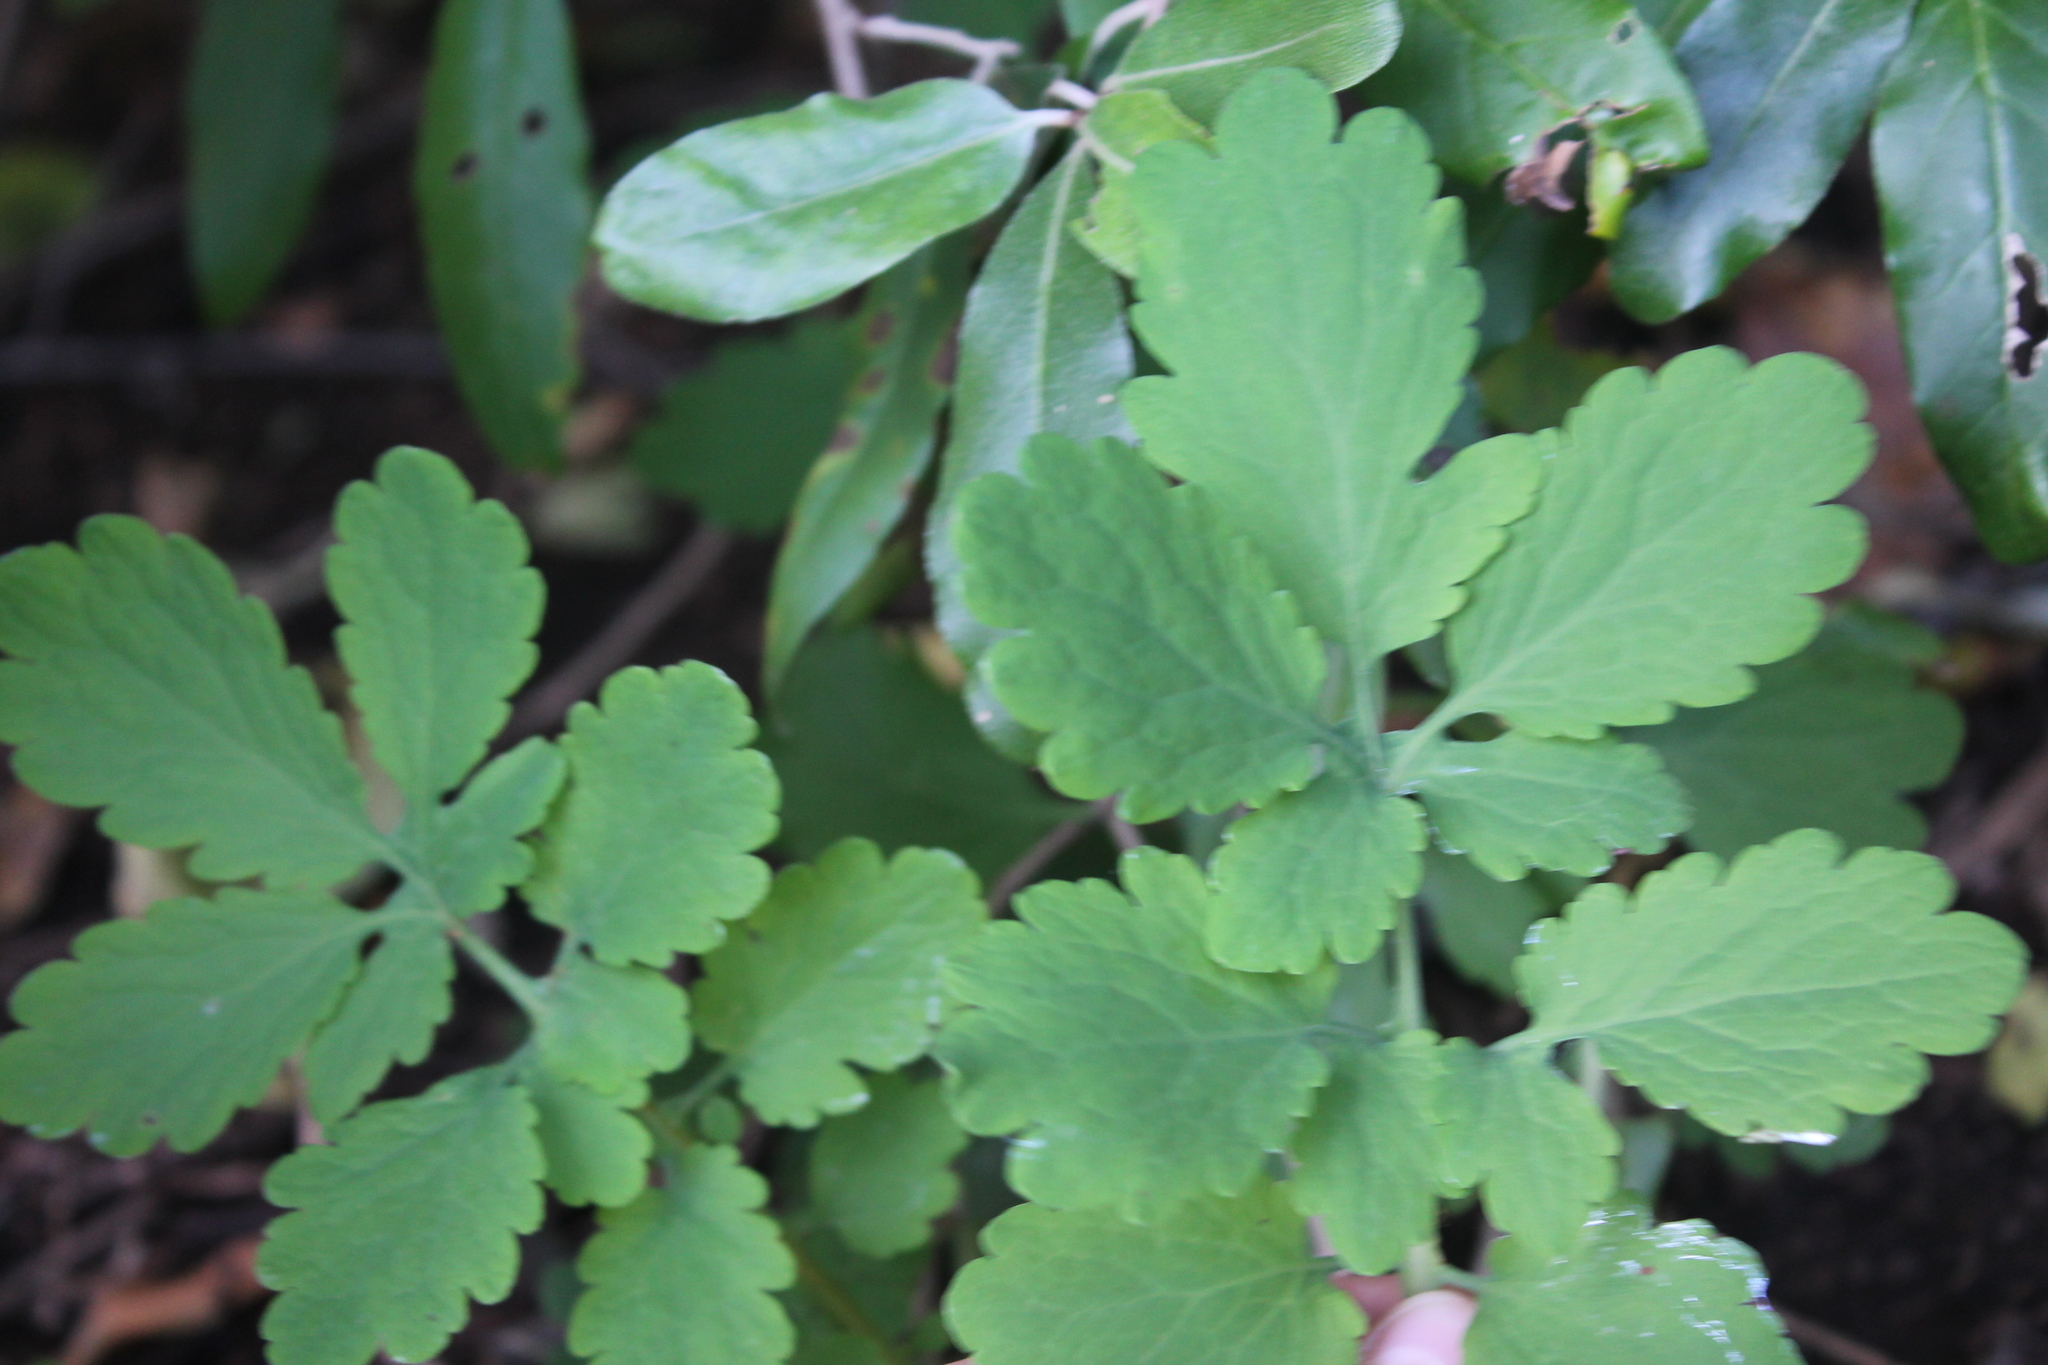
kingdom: Plantae
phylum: Tracheophyta
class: Magnoliopsida
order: Ranunculales
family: Papaveraceae
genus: Chelidonium
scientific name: Chelidonium majus
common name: Greater celandine
